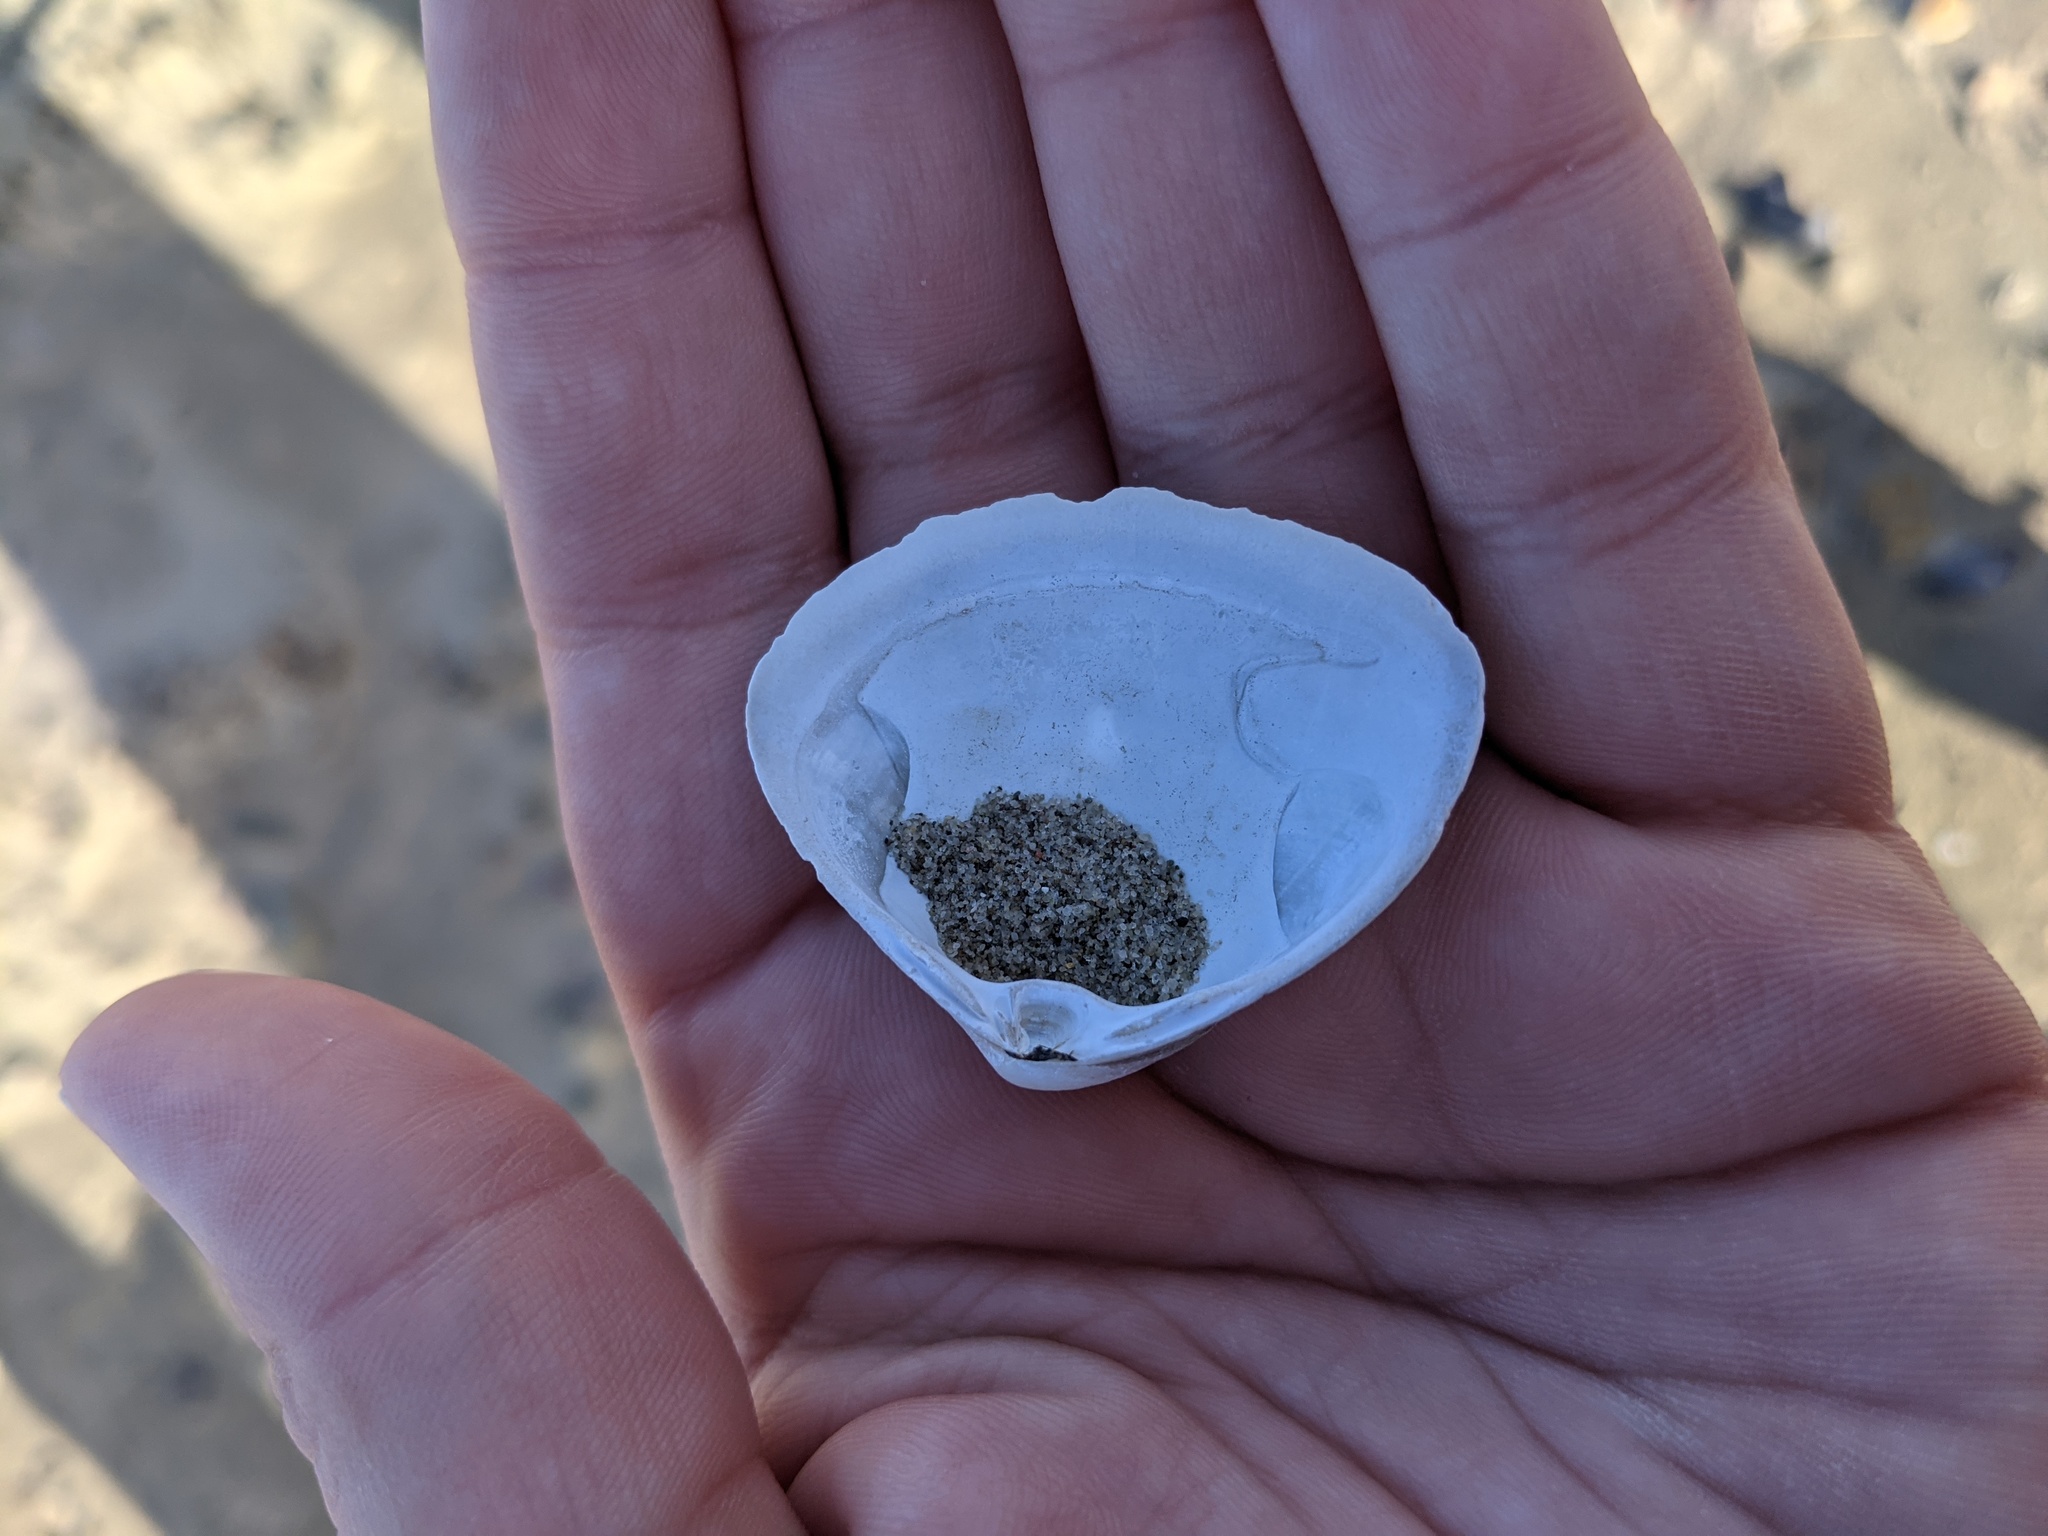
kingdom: Animalia
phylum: Mollusca
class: Bivalvia
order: Venerida
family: Mactridae
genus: Spisula
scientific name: Spisula solidissima
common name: Atlantic surf clam
